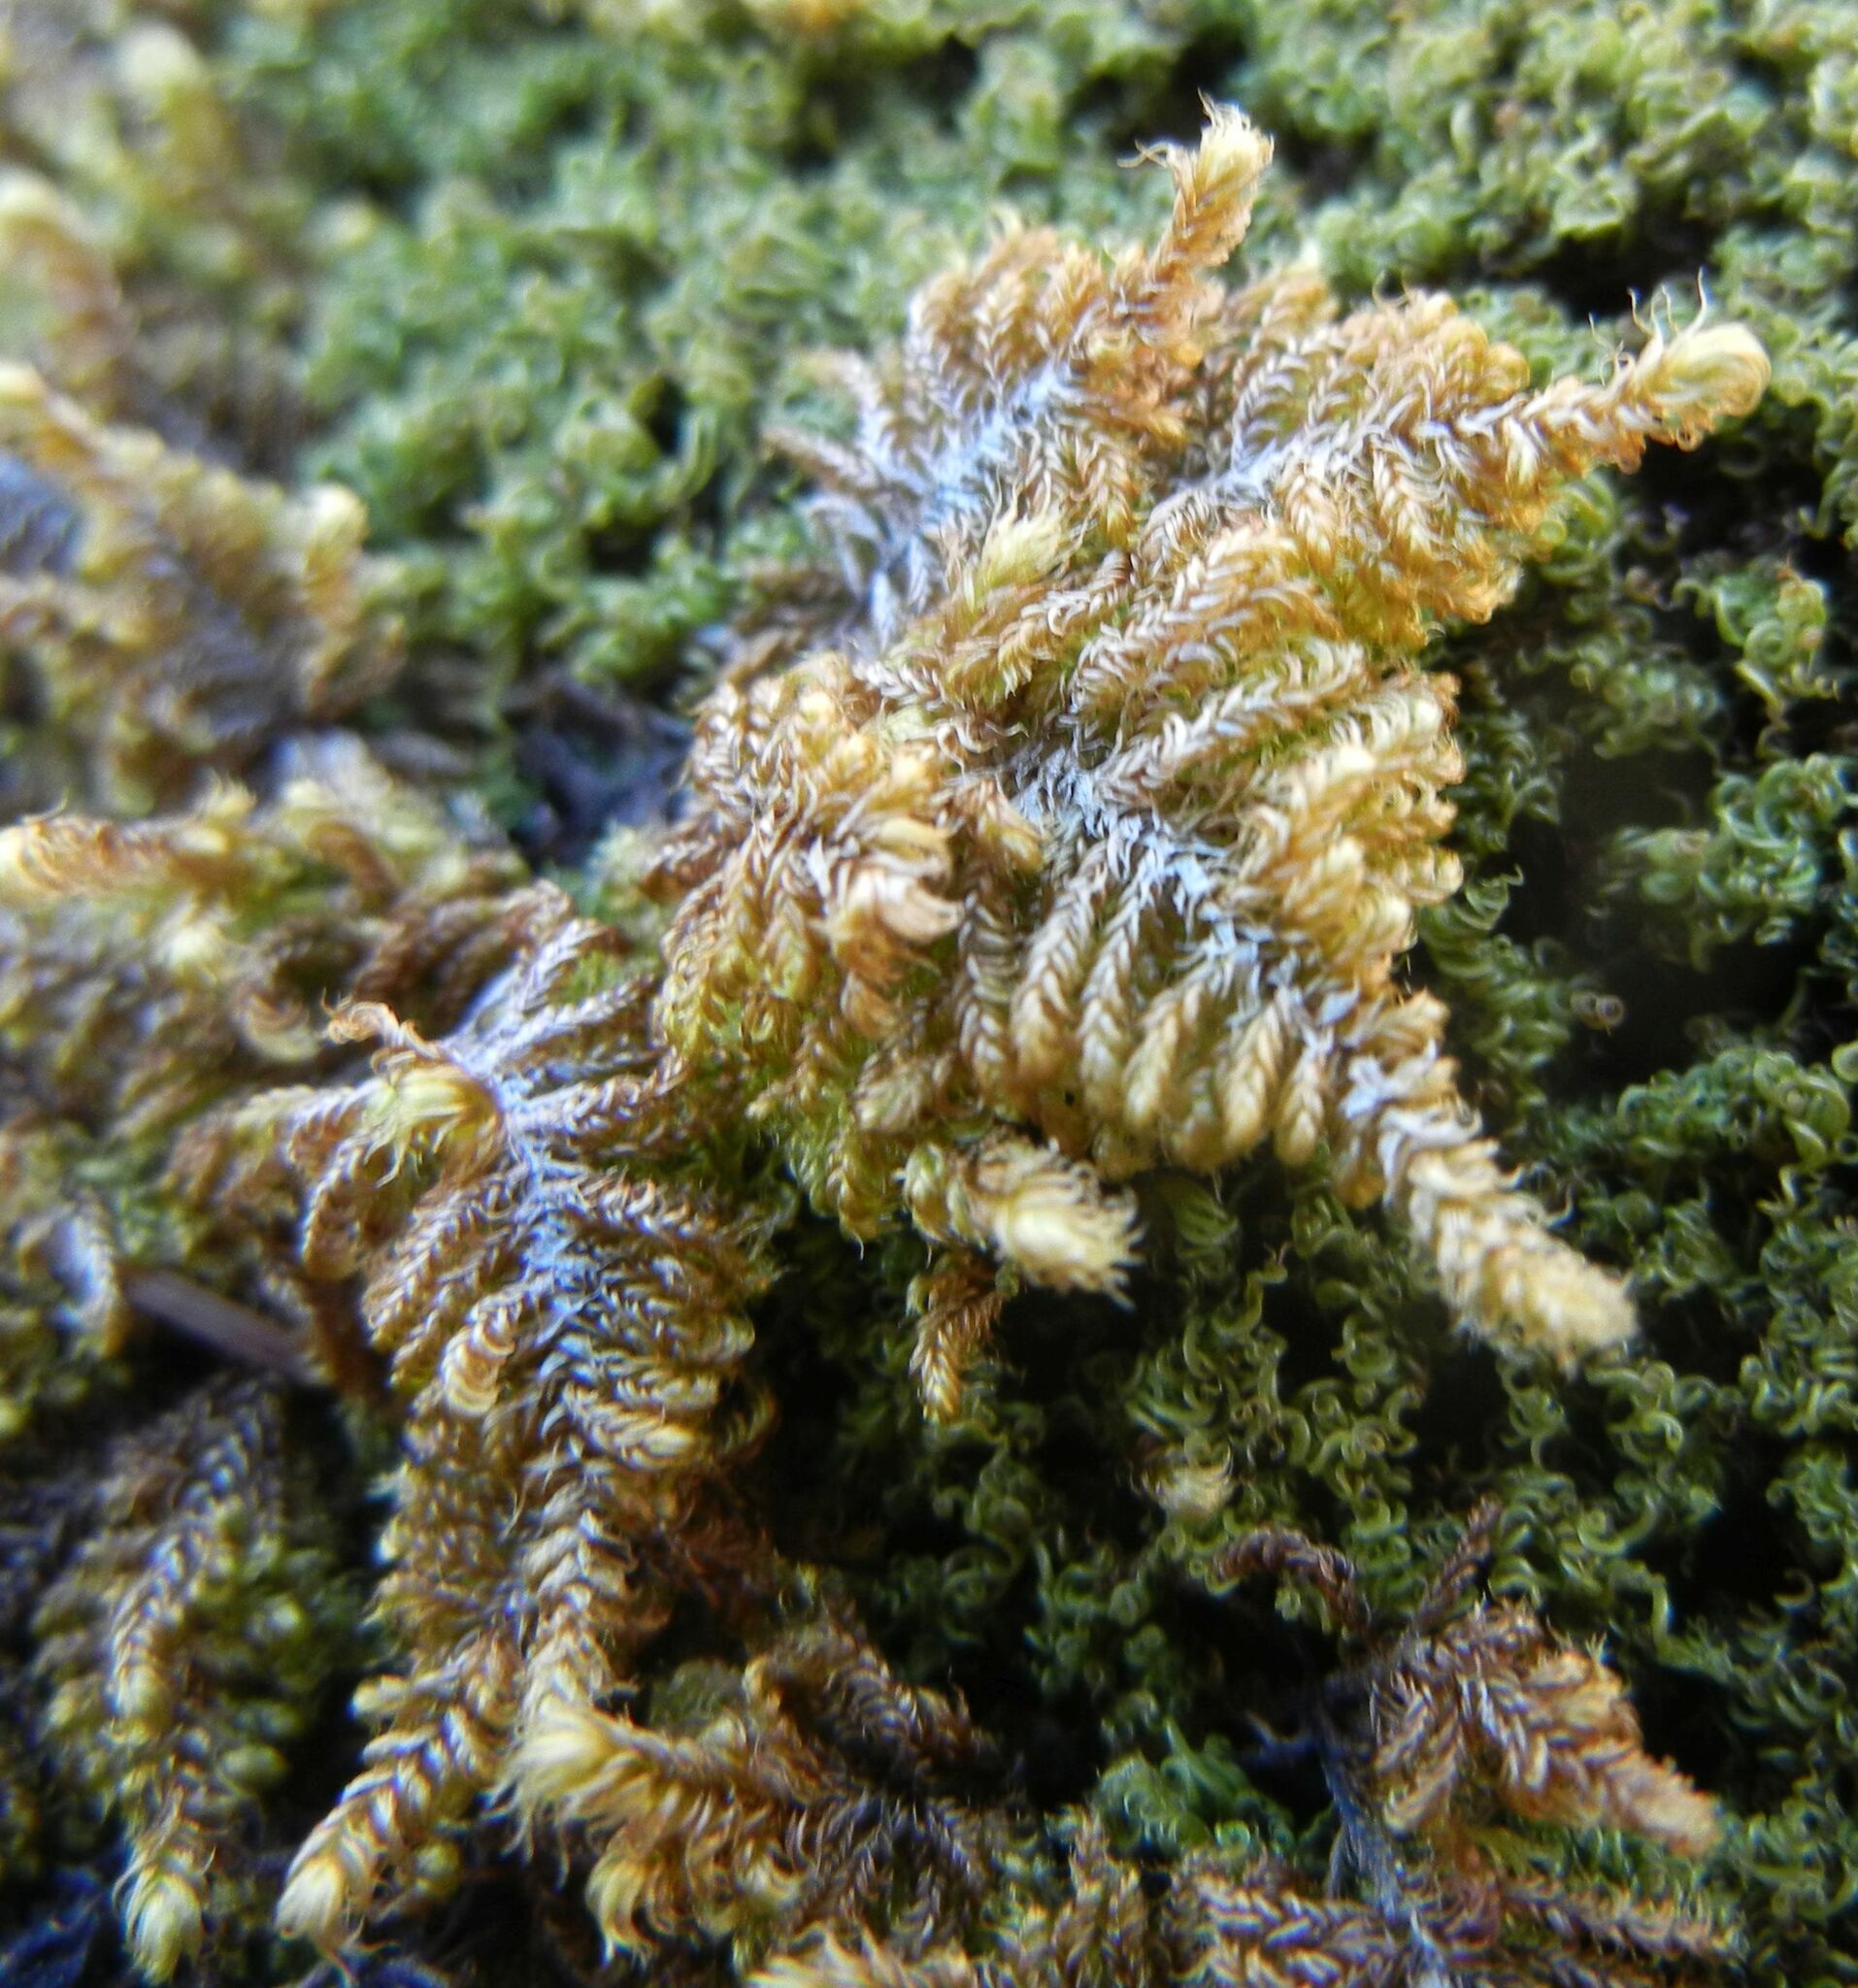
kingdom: Plantae
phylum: Bryophyta
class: Bryopsida
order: Hypnales
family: Myuriaceae
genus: Ctenidium
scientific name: Ctenidium molluscum
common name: Chalk comb-moss
